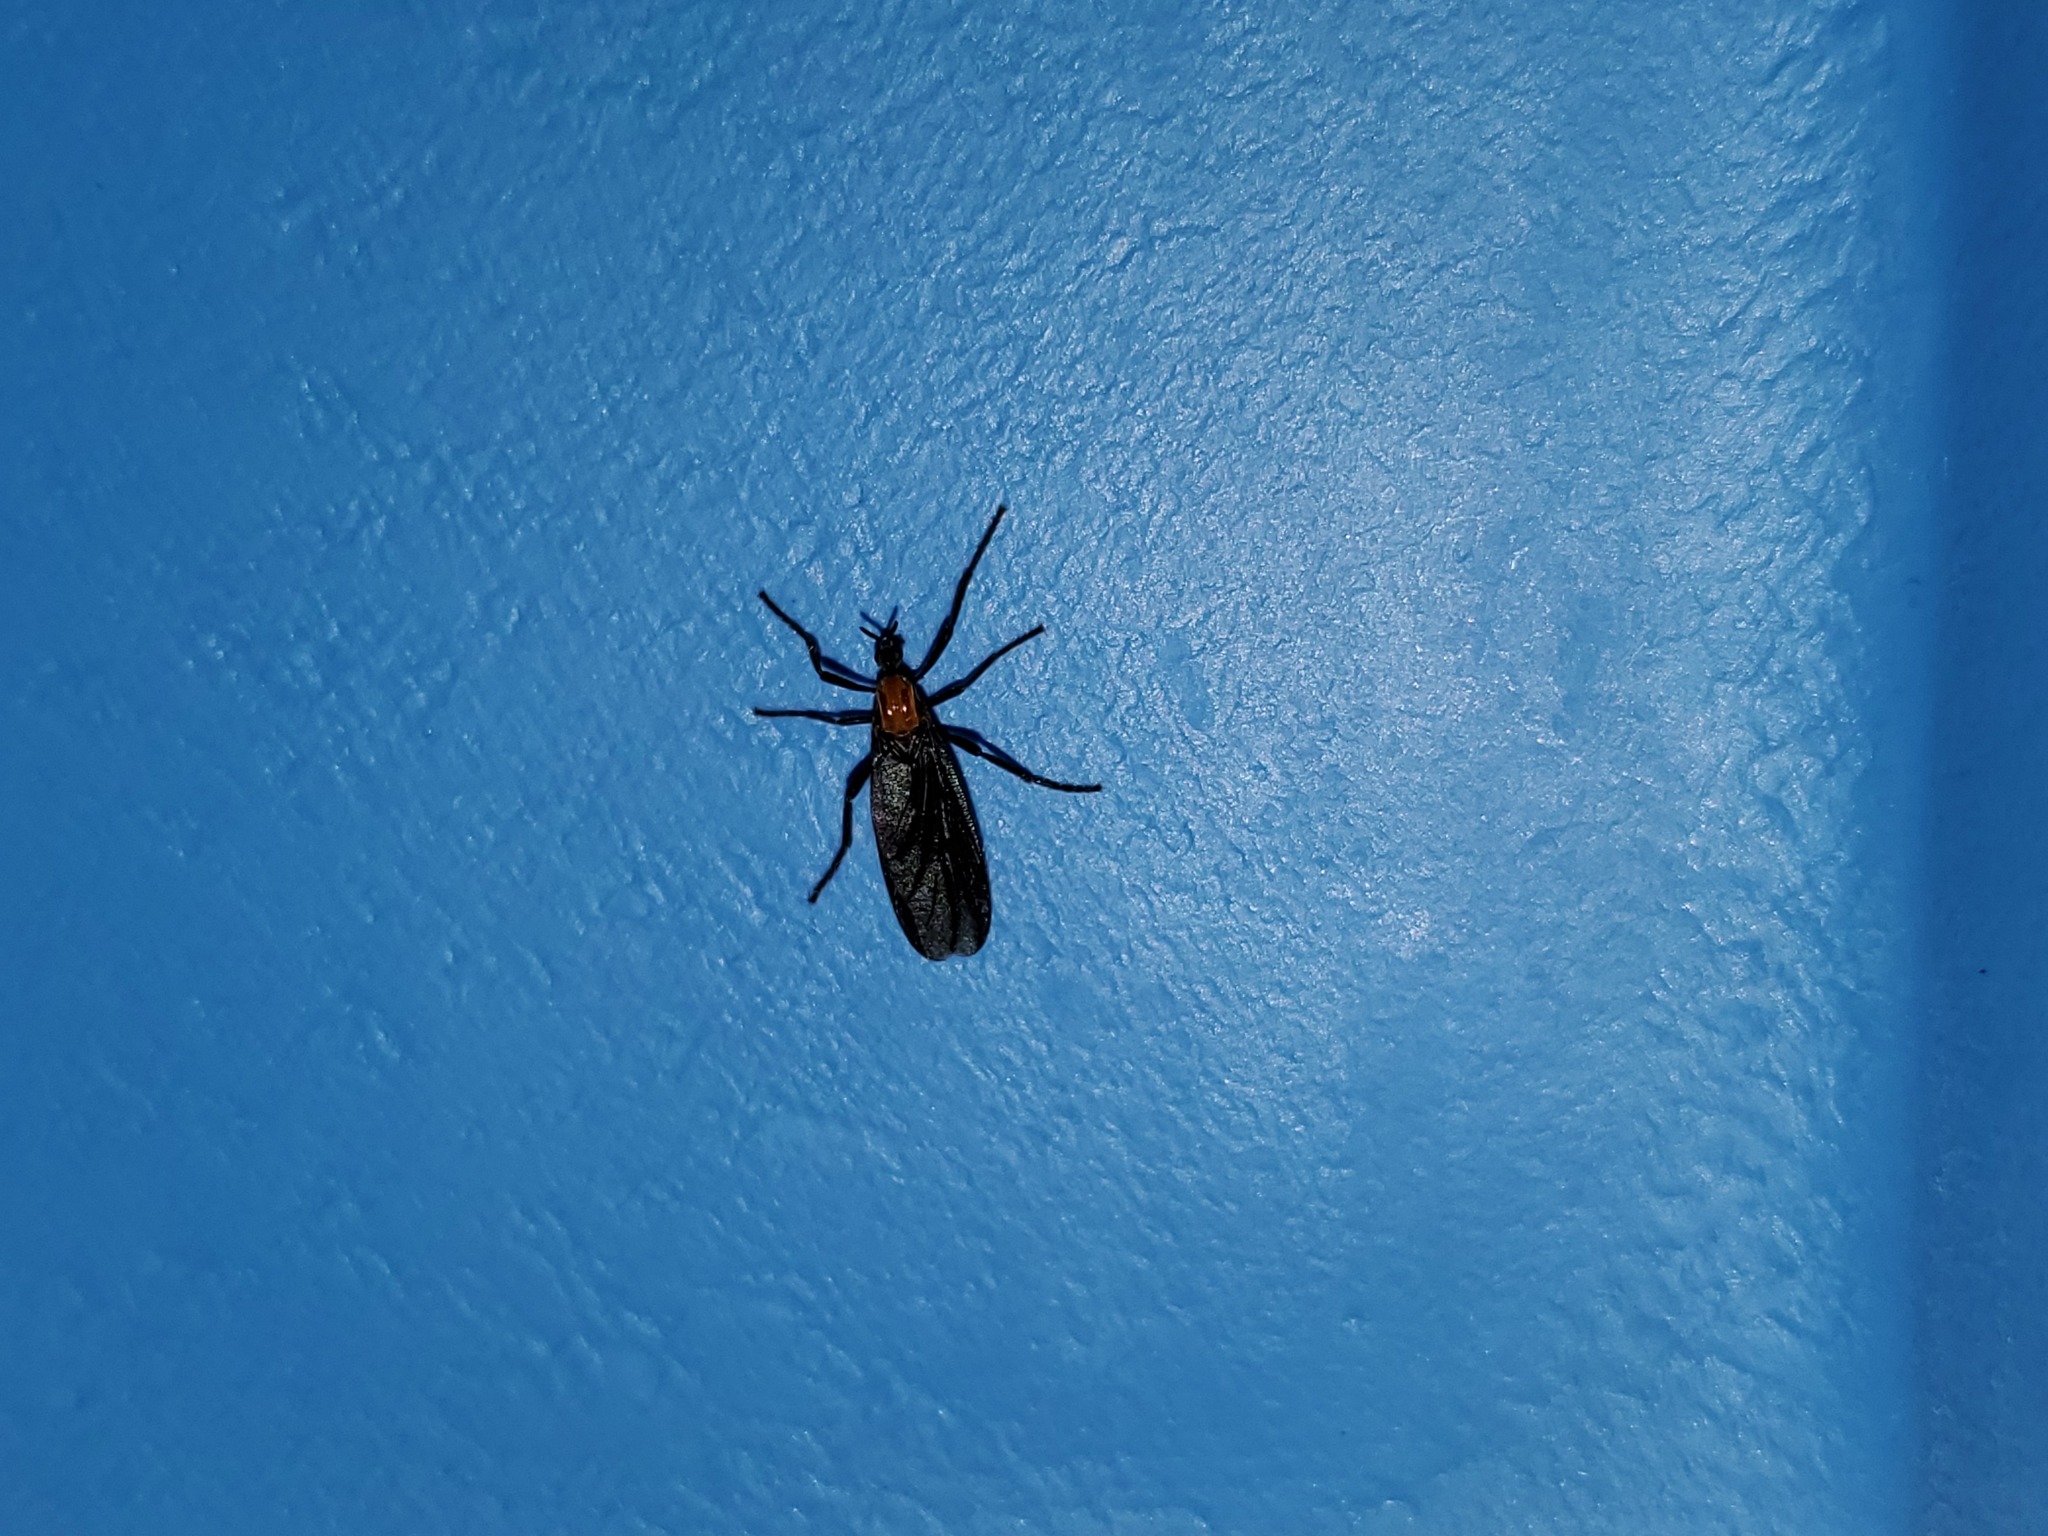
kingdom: Animalia
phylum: Arthropoda
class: Insecta
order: Diptera
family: Bibionidae
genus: Plecia
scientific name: Plecia nearctica
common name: March fly
